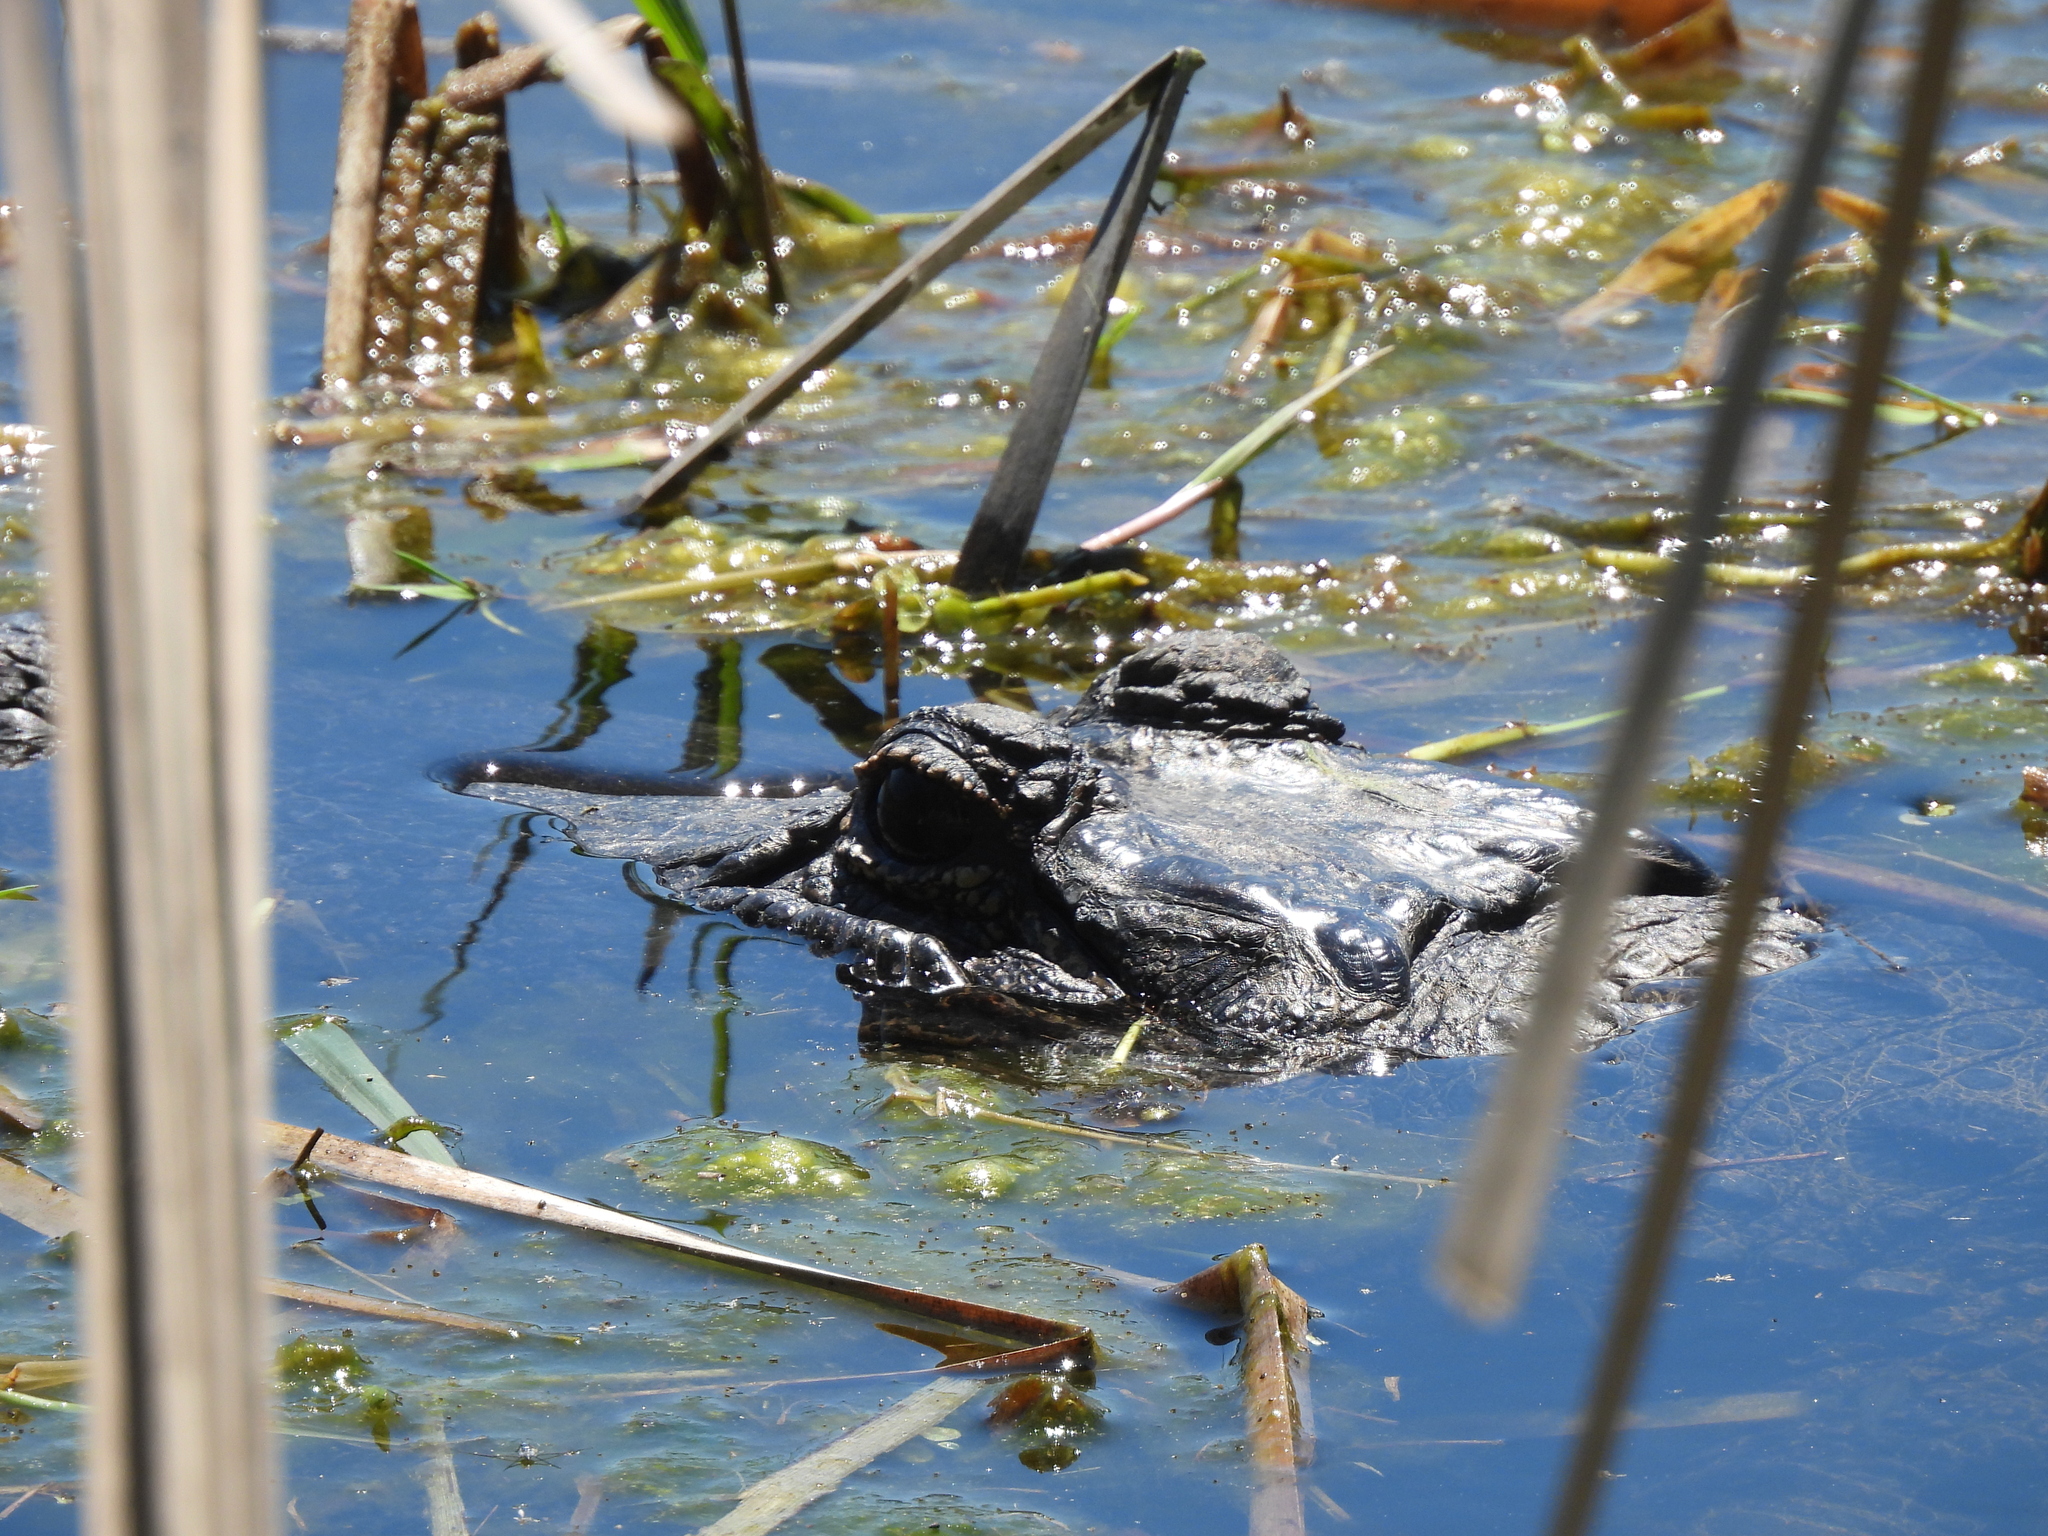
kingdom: Animalia
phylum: Chordata
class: Crocodylia
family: Alligatoridae
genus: Alligator
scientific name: Alligator mississippiensis
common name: American alligator
